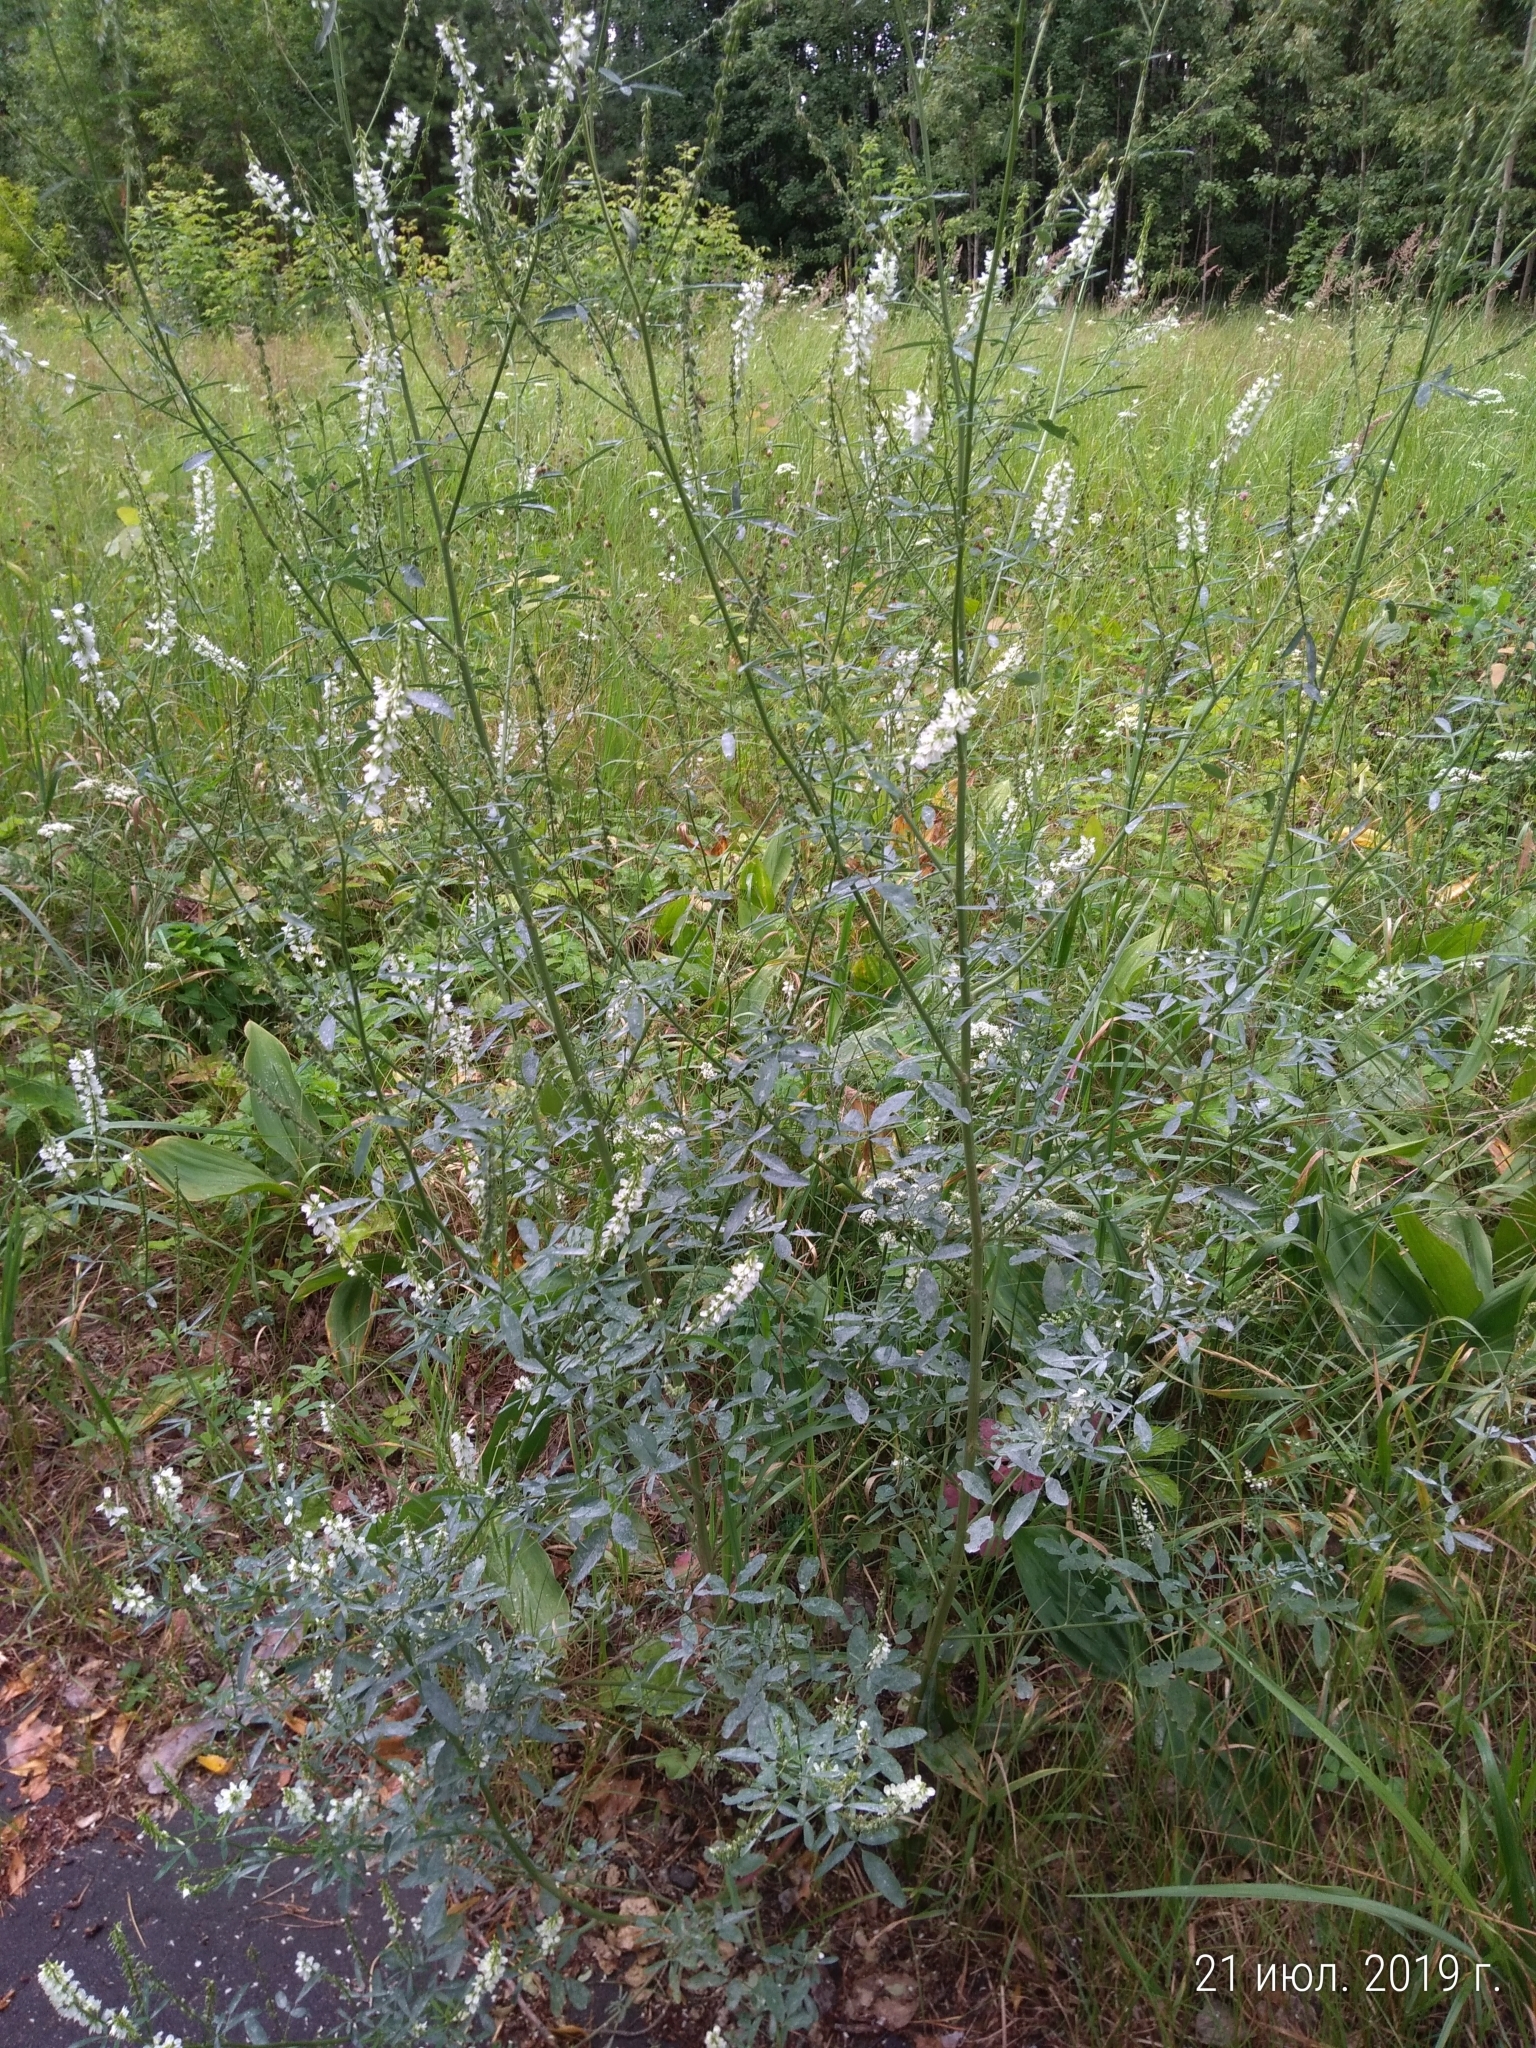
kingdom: Plantae
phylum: Tracheophyta
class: Magnoliopsida
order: Fabales
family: Fabaceae
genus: Melilotus
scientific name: Melilotus albus
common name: White melilot
